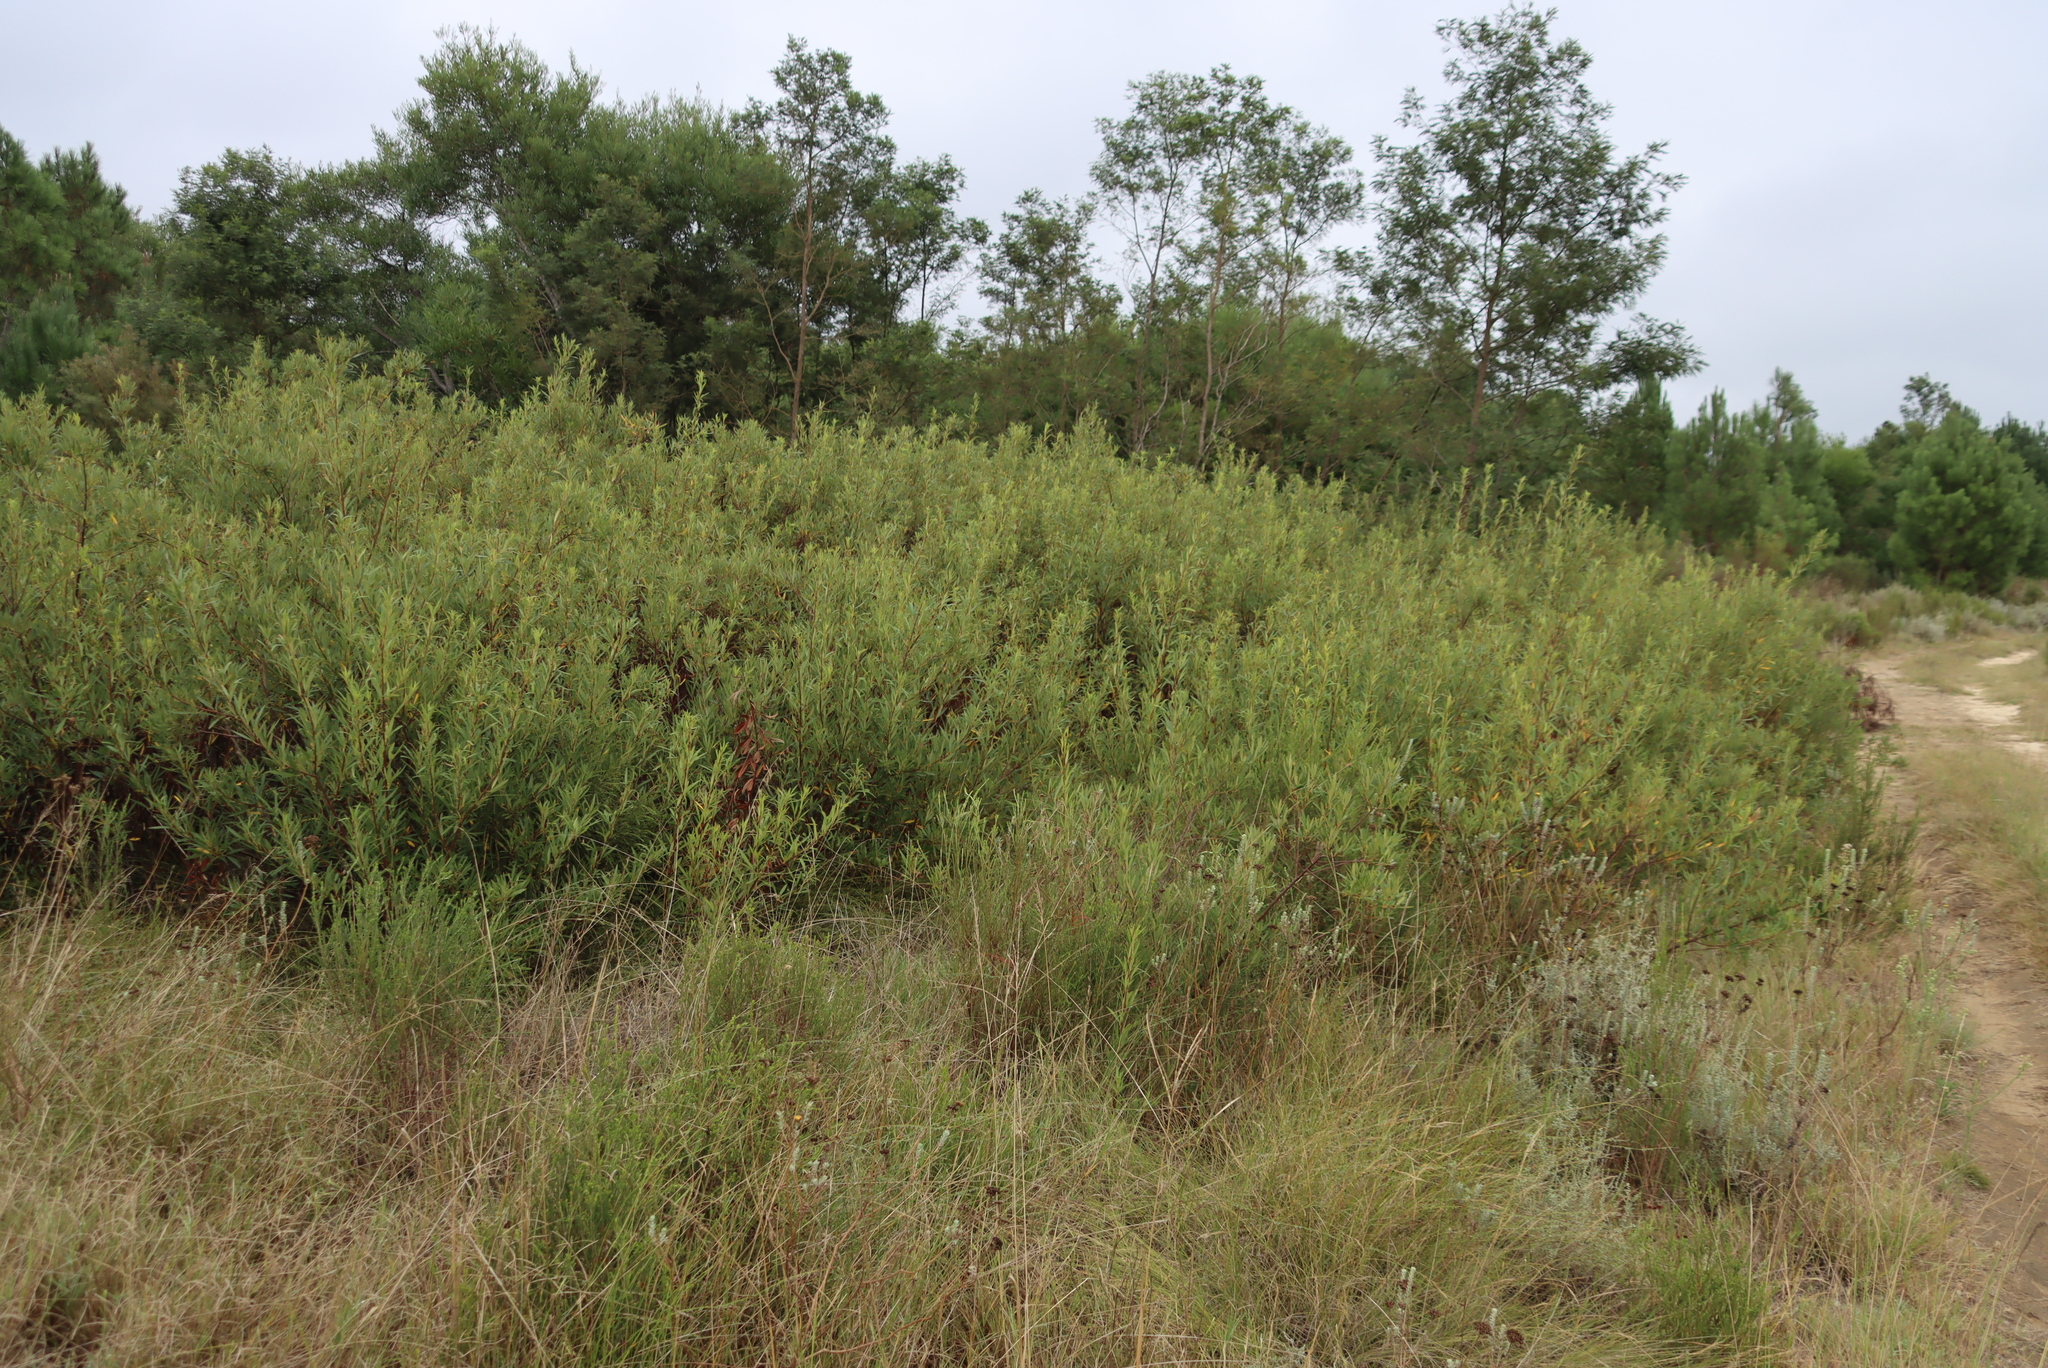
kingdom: Plantae
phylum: Tracheophyta
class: Magnoliopsida
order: Sapindales
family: Anacardiaceae
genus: Searsia
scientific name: Searsia angustifolia
